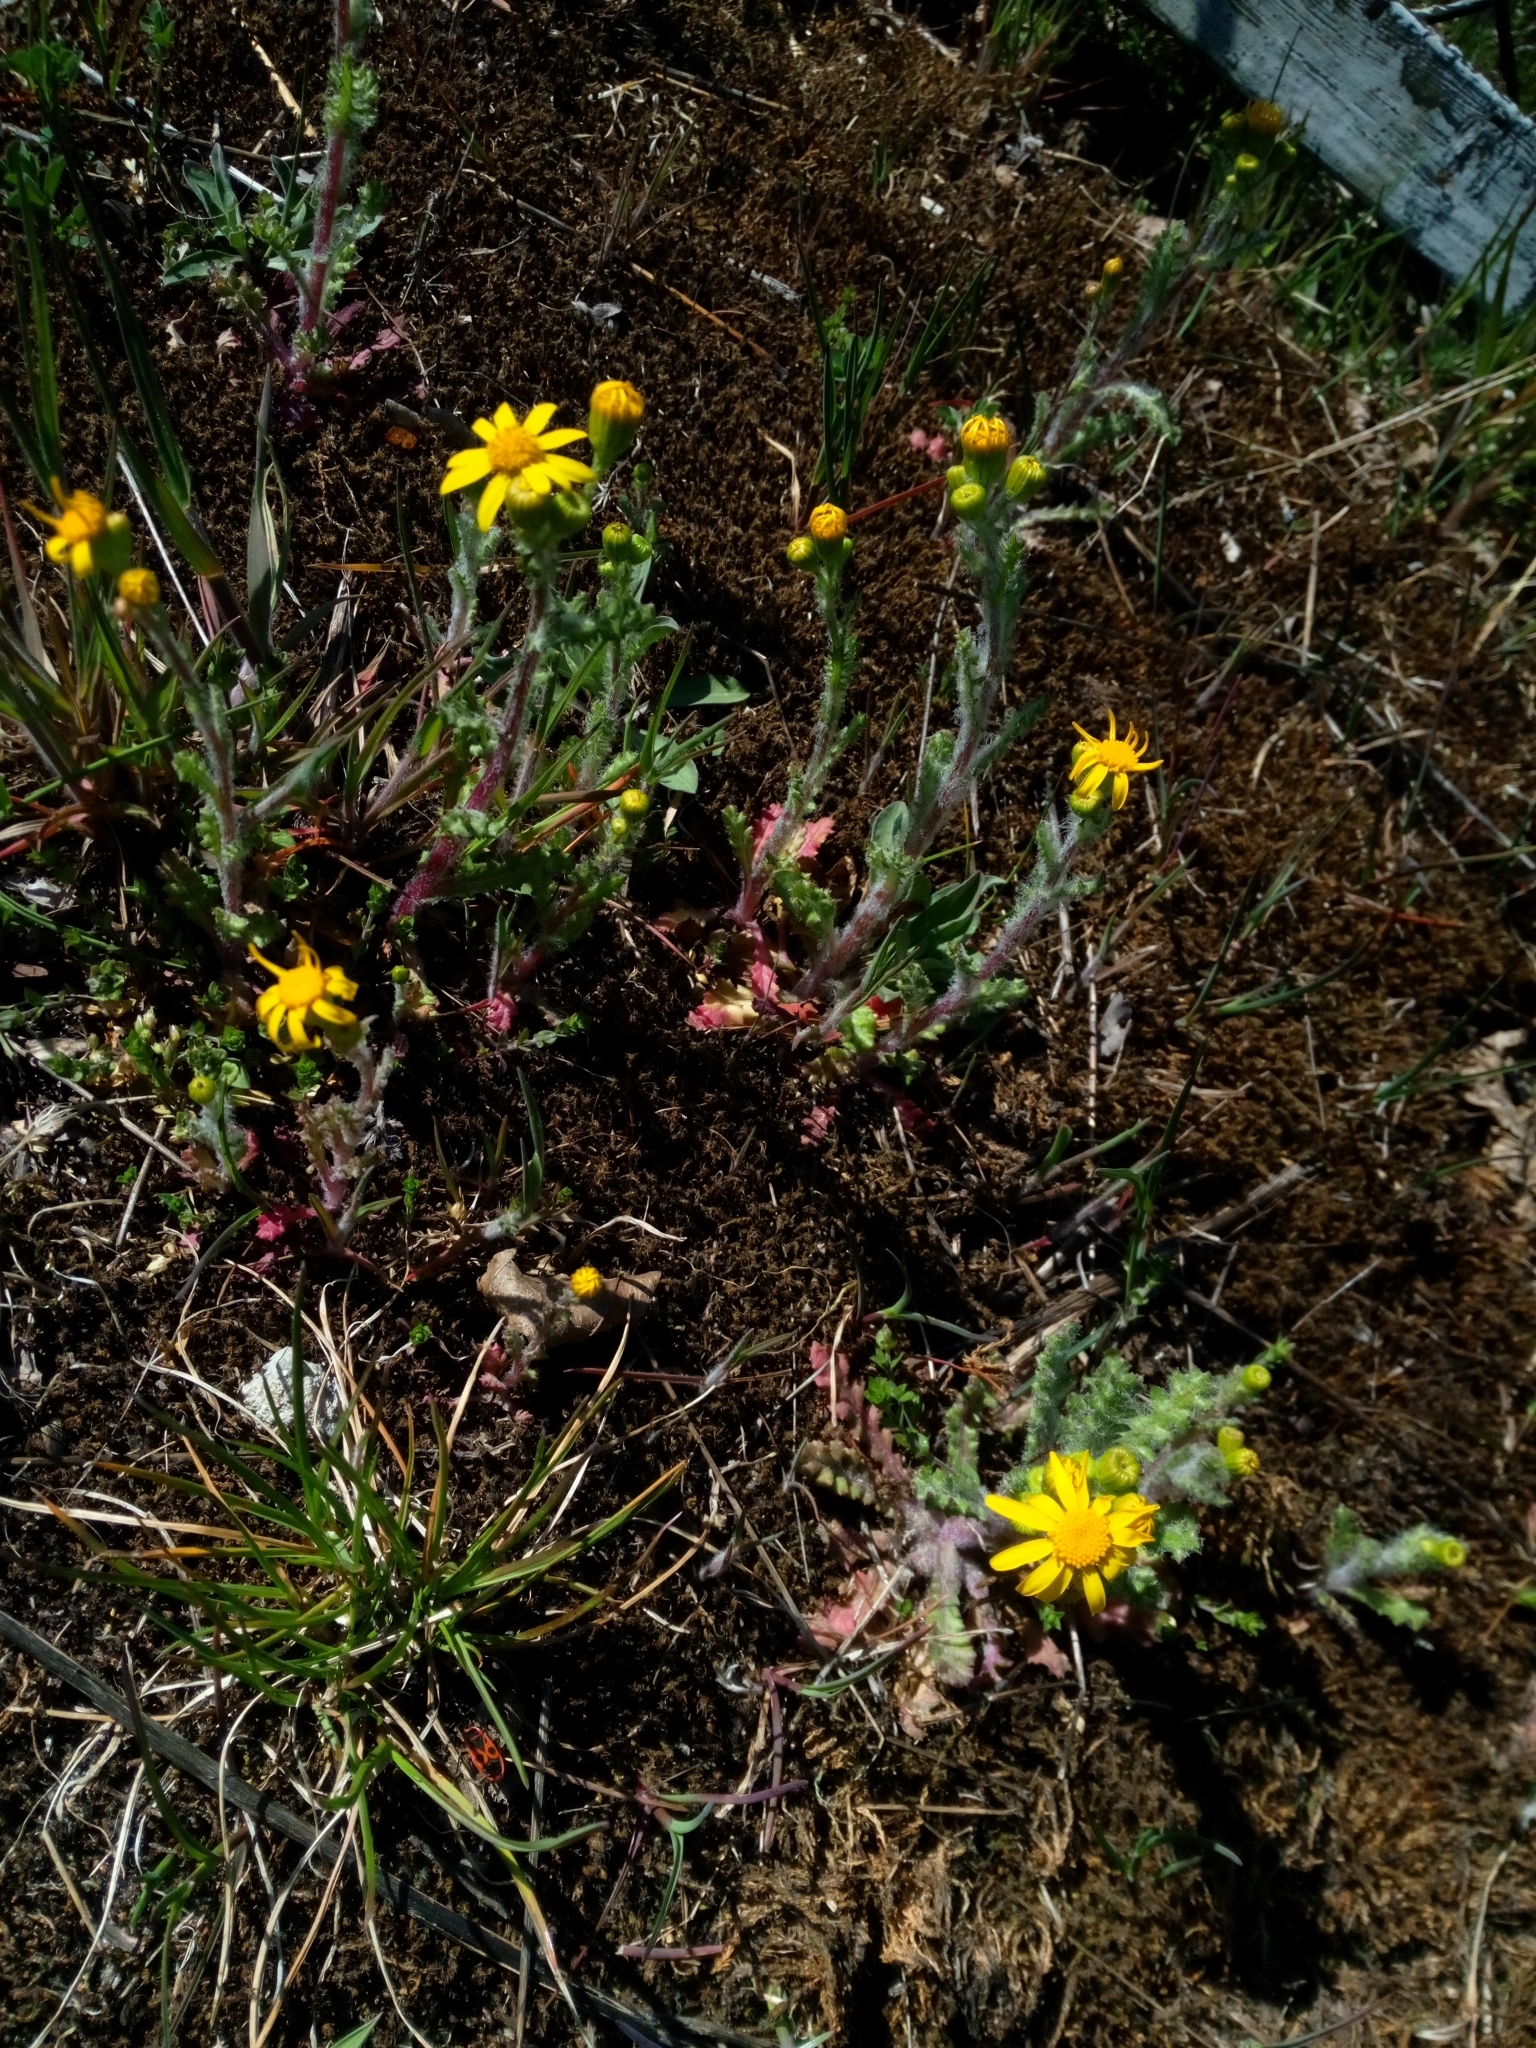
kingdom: Plantae
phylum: Tracheophyta
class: Magnoliopsida
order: Asterales
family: Asteraceae
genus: Senecio
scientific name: Senecio vernalis
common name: Eastern groundsel
